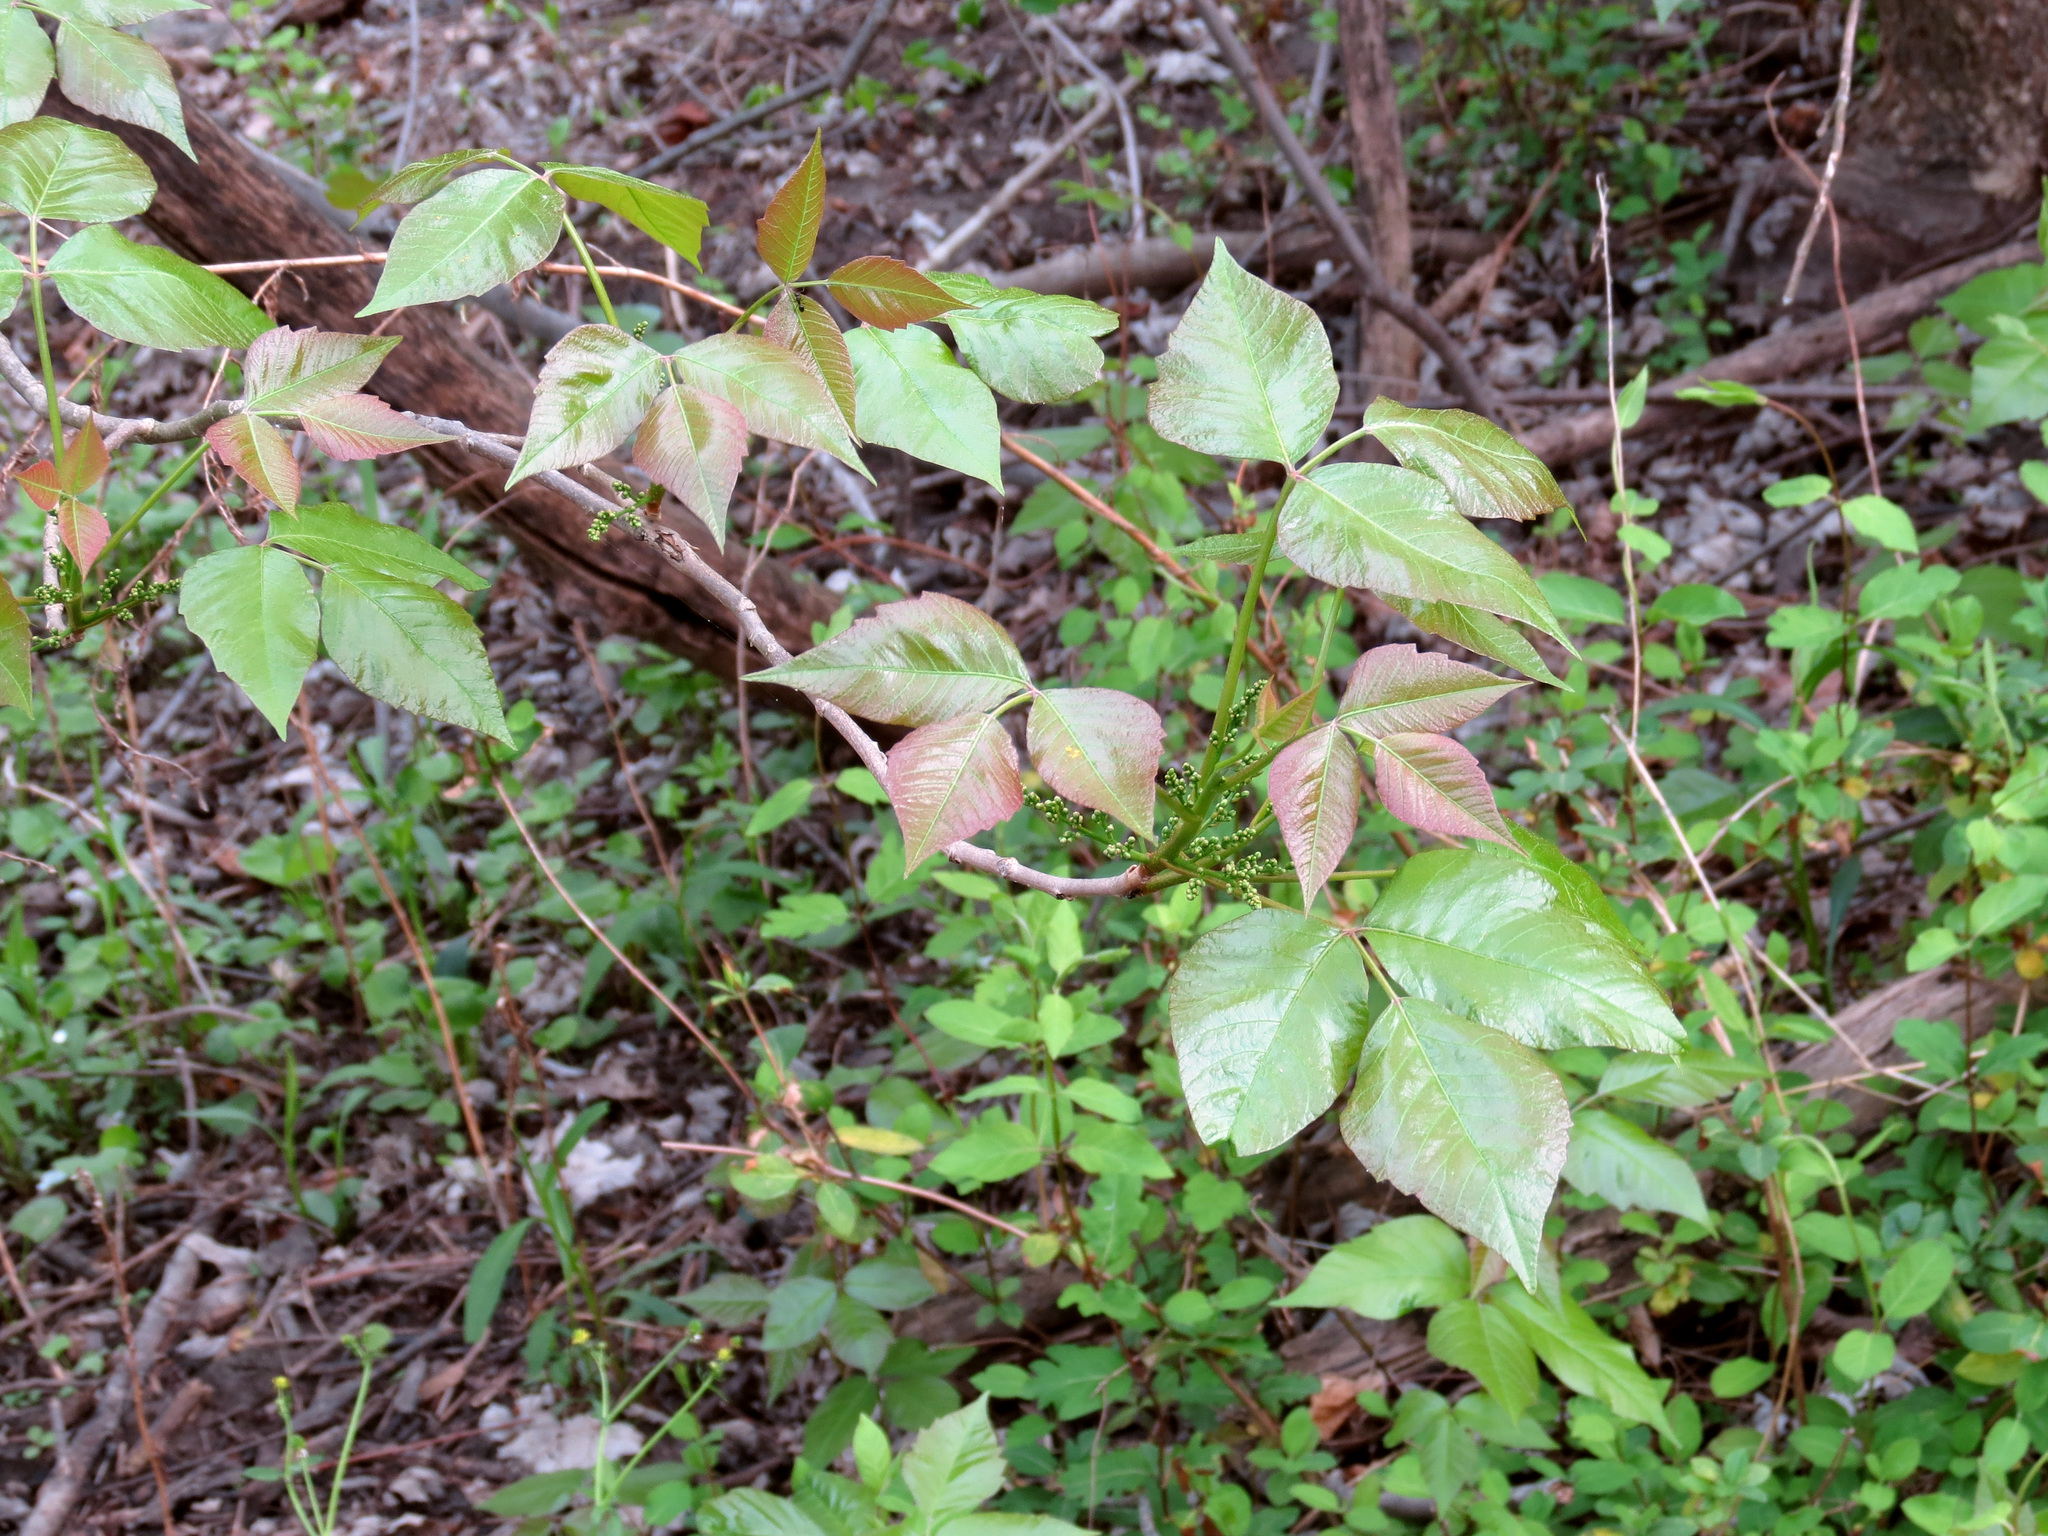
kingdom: Plantae
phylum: Tracheophyta
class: Magnoliopsida
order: Sapindales
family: Anacardiaceae
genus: Toxicodendron
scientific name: Toxicodendron radicans
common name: Poison ivy
